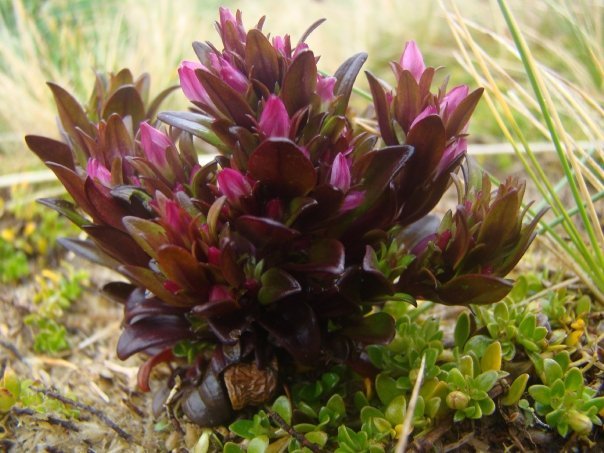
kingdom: Plantae
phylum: Tracheophyta
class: Magnoliopsida
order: Gentianales
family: Gentianaceae
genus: Gentianella
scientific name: Gentianella antarctica
